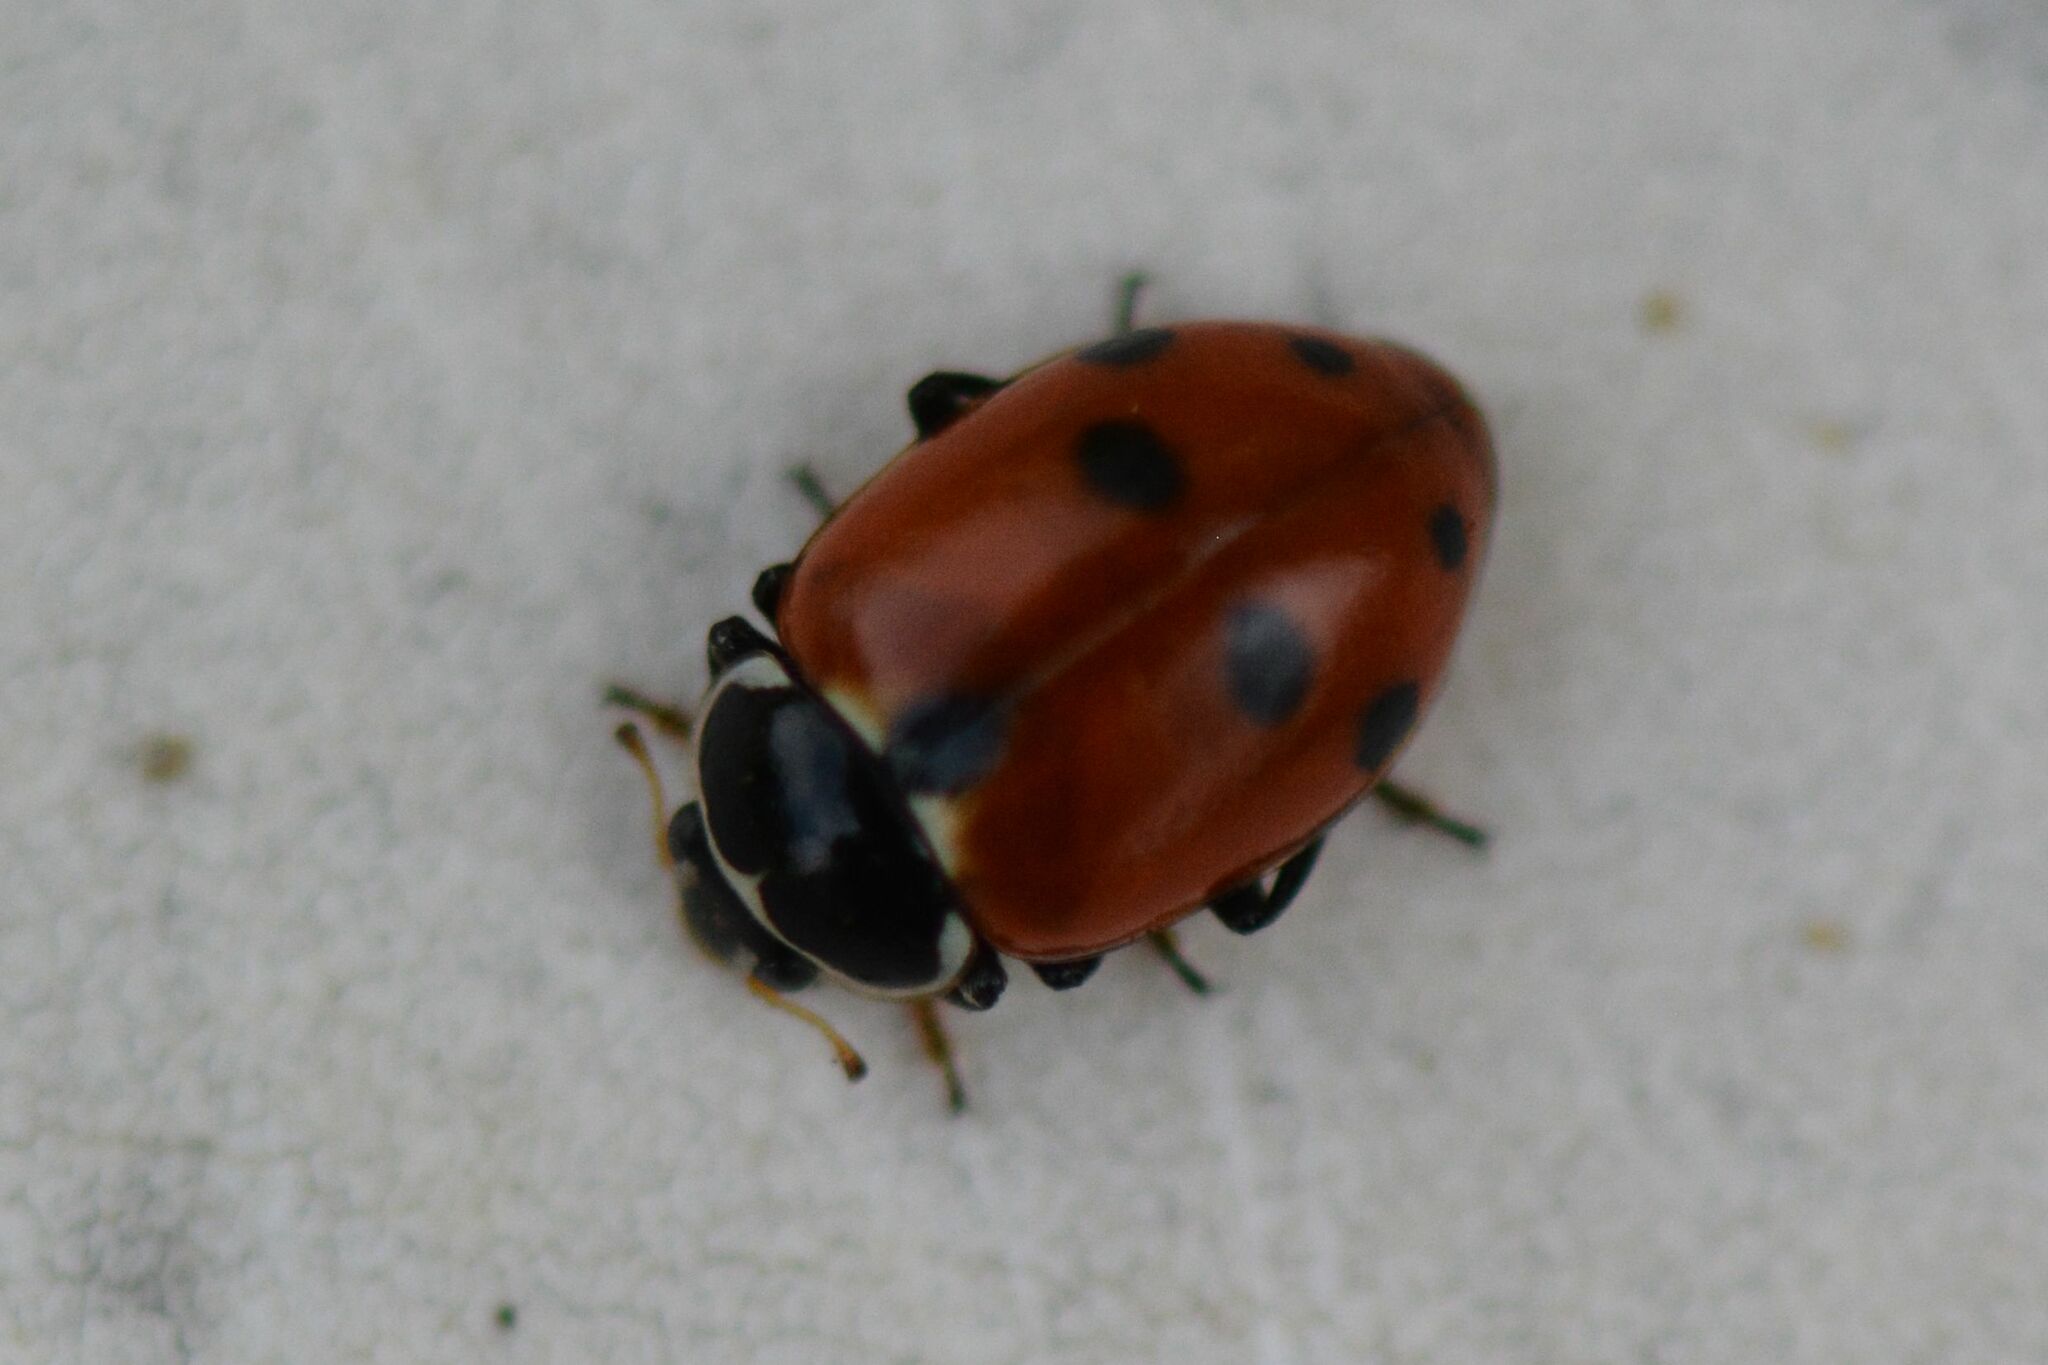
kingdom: Animalia
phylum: Arthropoda
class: Insecta
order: Coleoptera
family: Coccinellidae
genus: Hippodamia
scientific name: Hippodamia variegata
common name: Ladybird beetle
